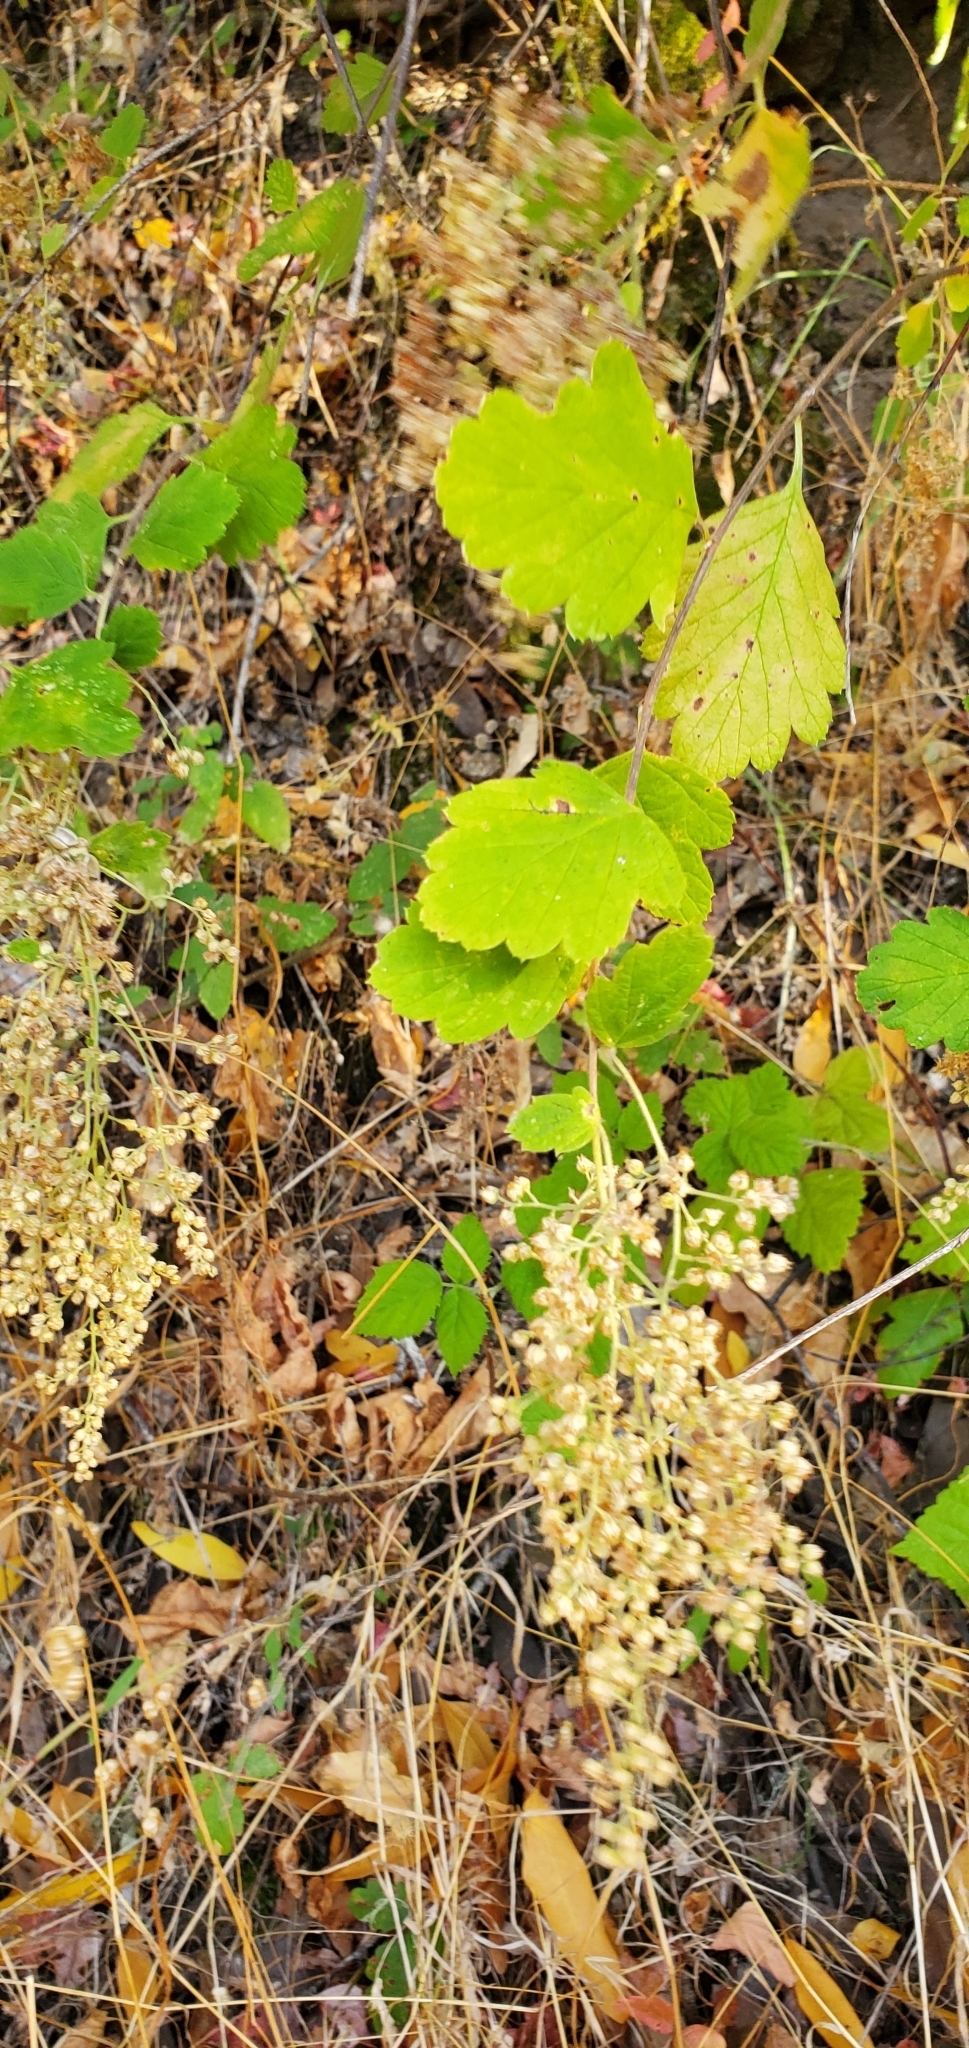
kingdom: Plantae
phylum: Tracheophyta
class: Magnoliopsida
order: Rosales
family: Rosaceae
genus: Holodiscus
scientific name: Holodiscus discolor
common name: Oceanspray
